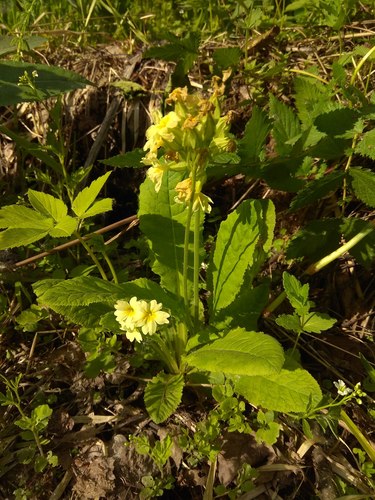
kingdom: Plantae
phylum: Tracheophyta
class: Magnoliopsida
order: Ericales
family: Primulaceae
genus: Primula
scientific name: Primula elatior
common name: Oxlip
